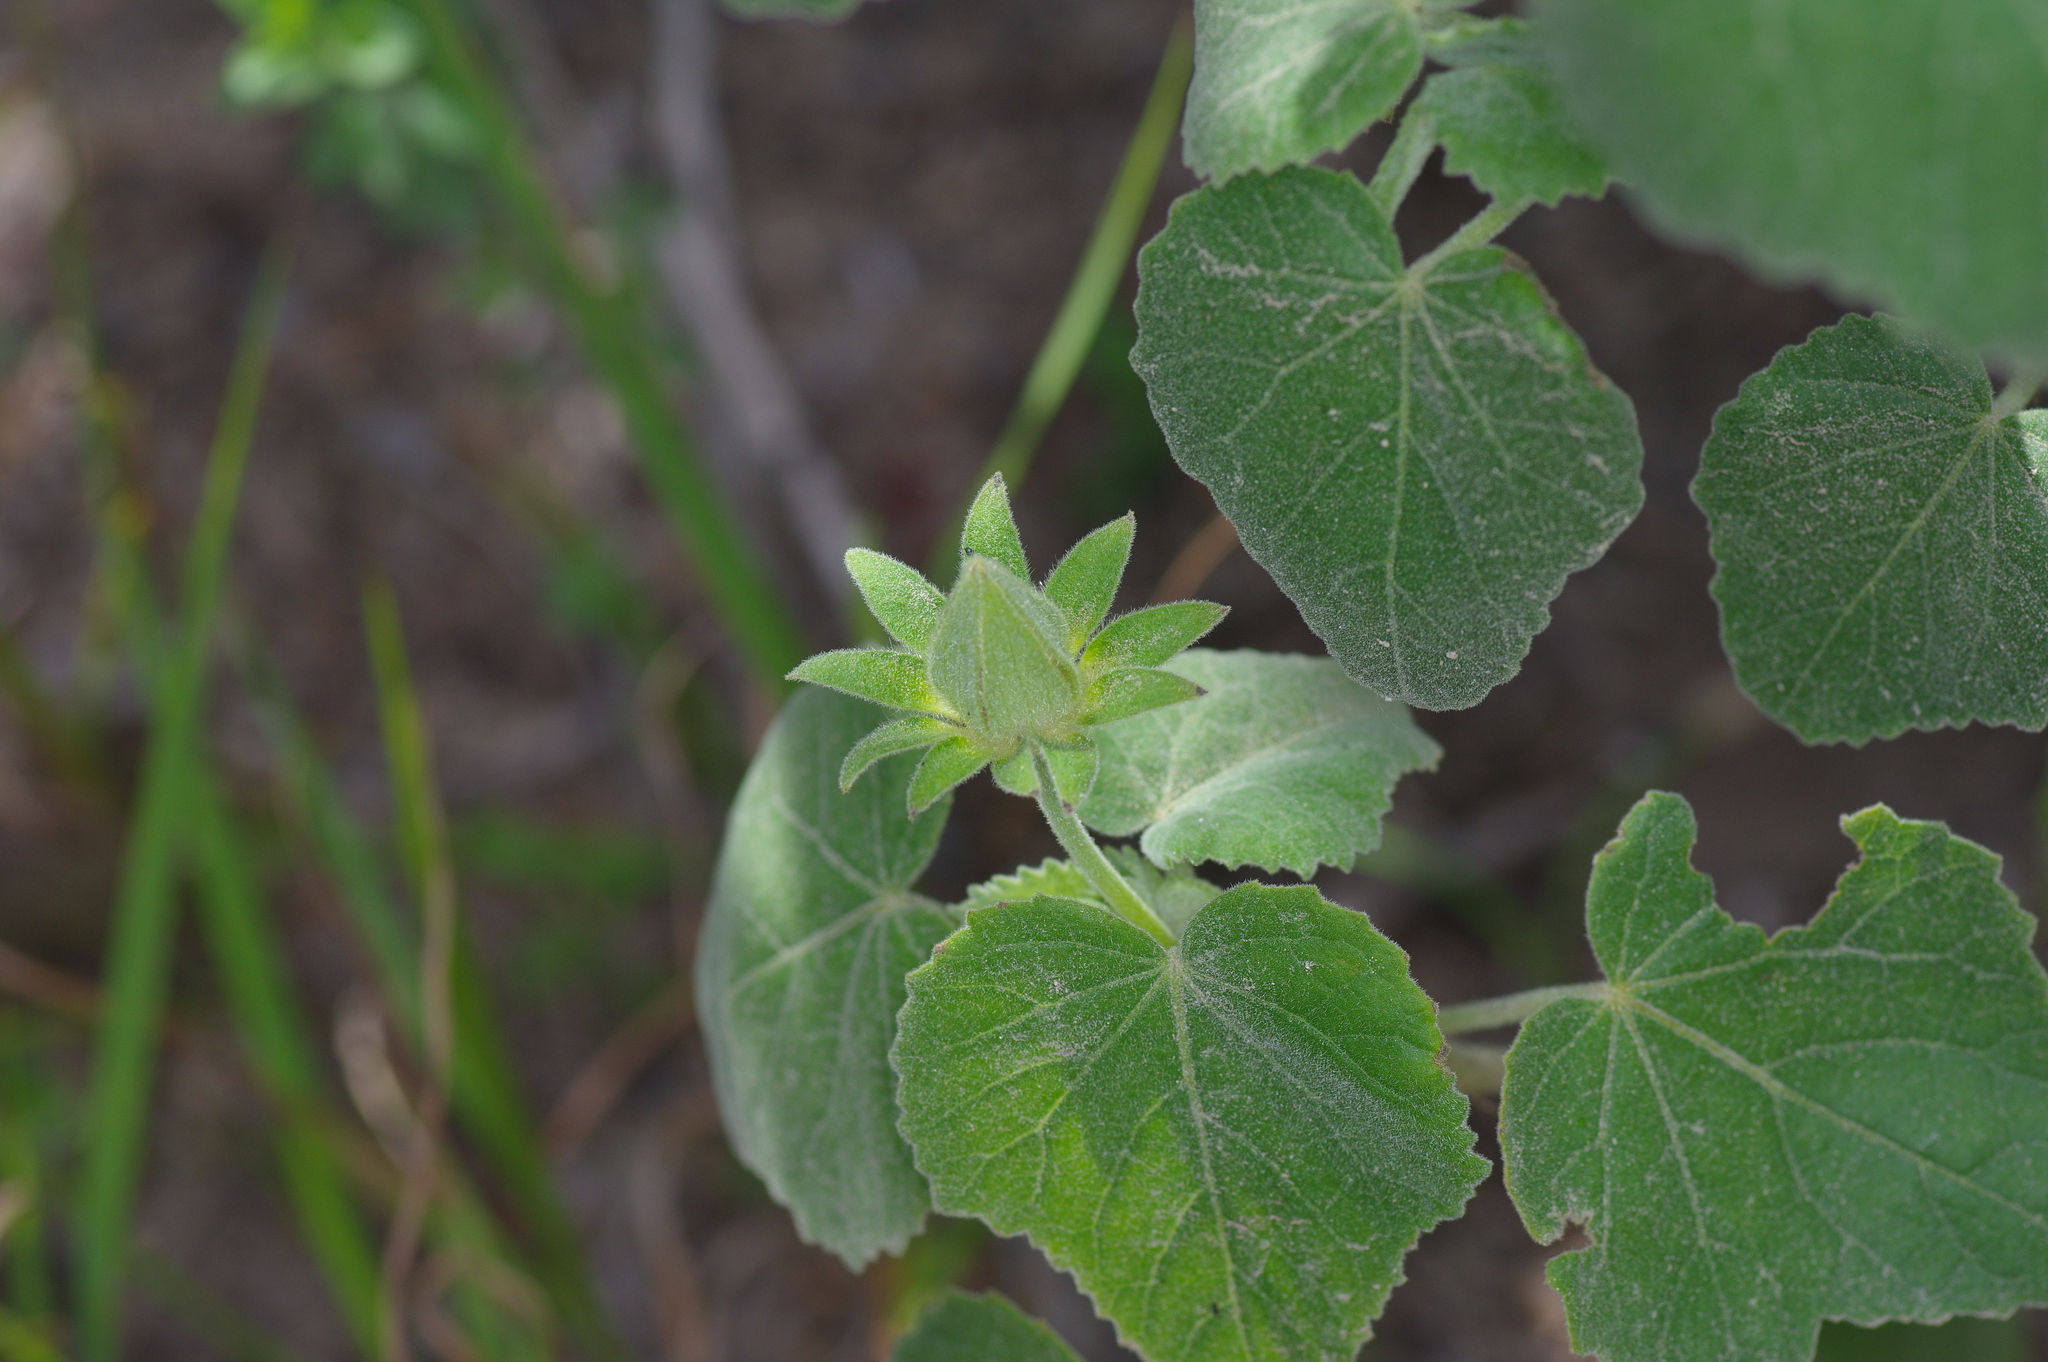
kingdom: Plantae
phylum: Tracheophyta
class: Magnoliopsida
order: Malvales
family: Malvaceae
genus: Hibiscus
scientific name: Hibiscus martianus
